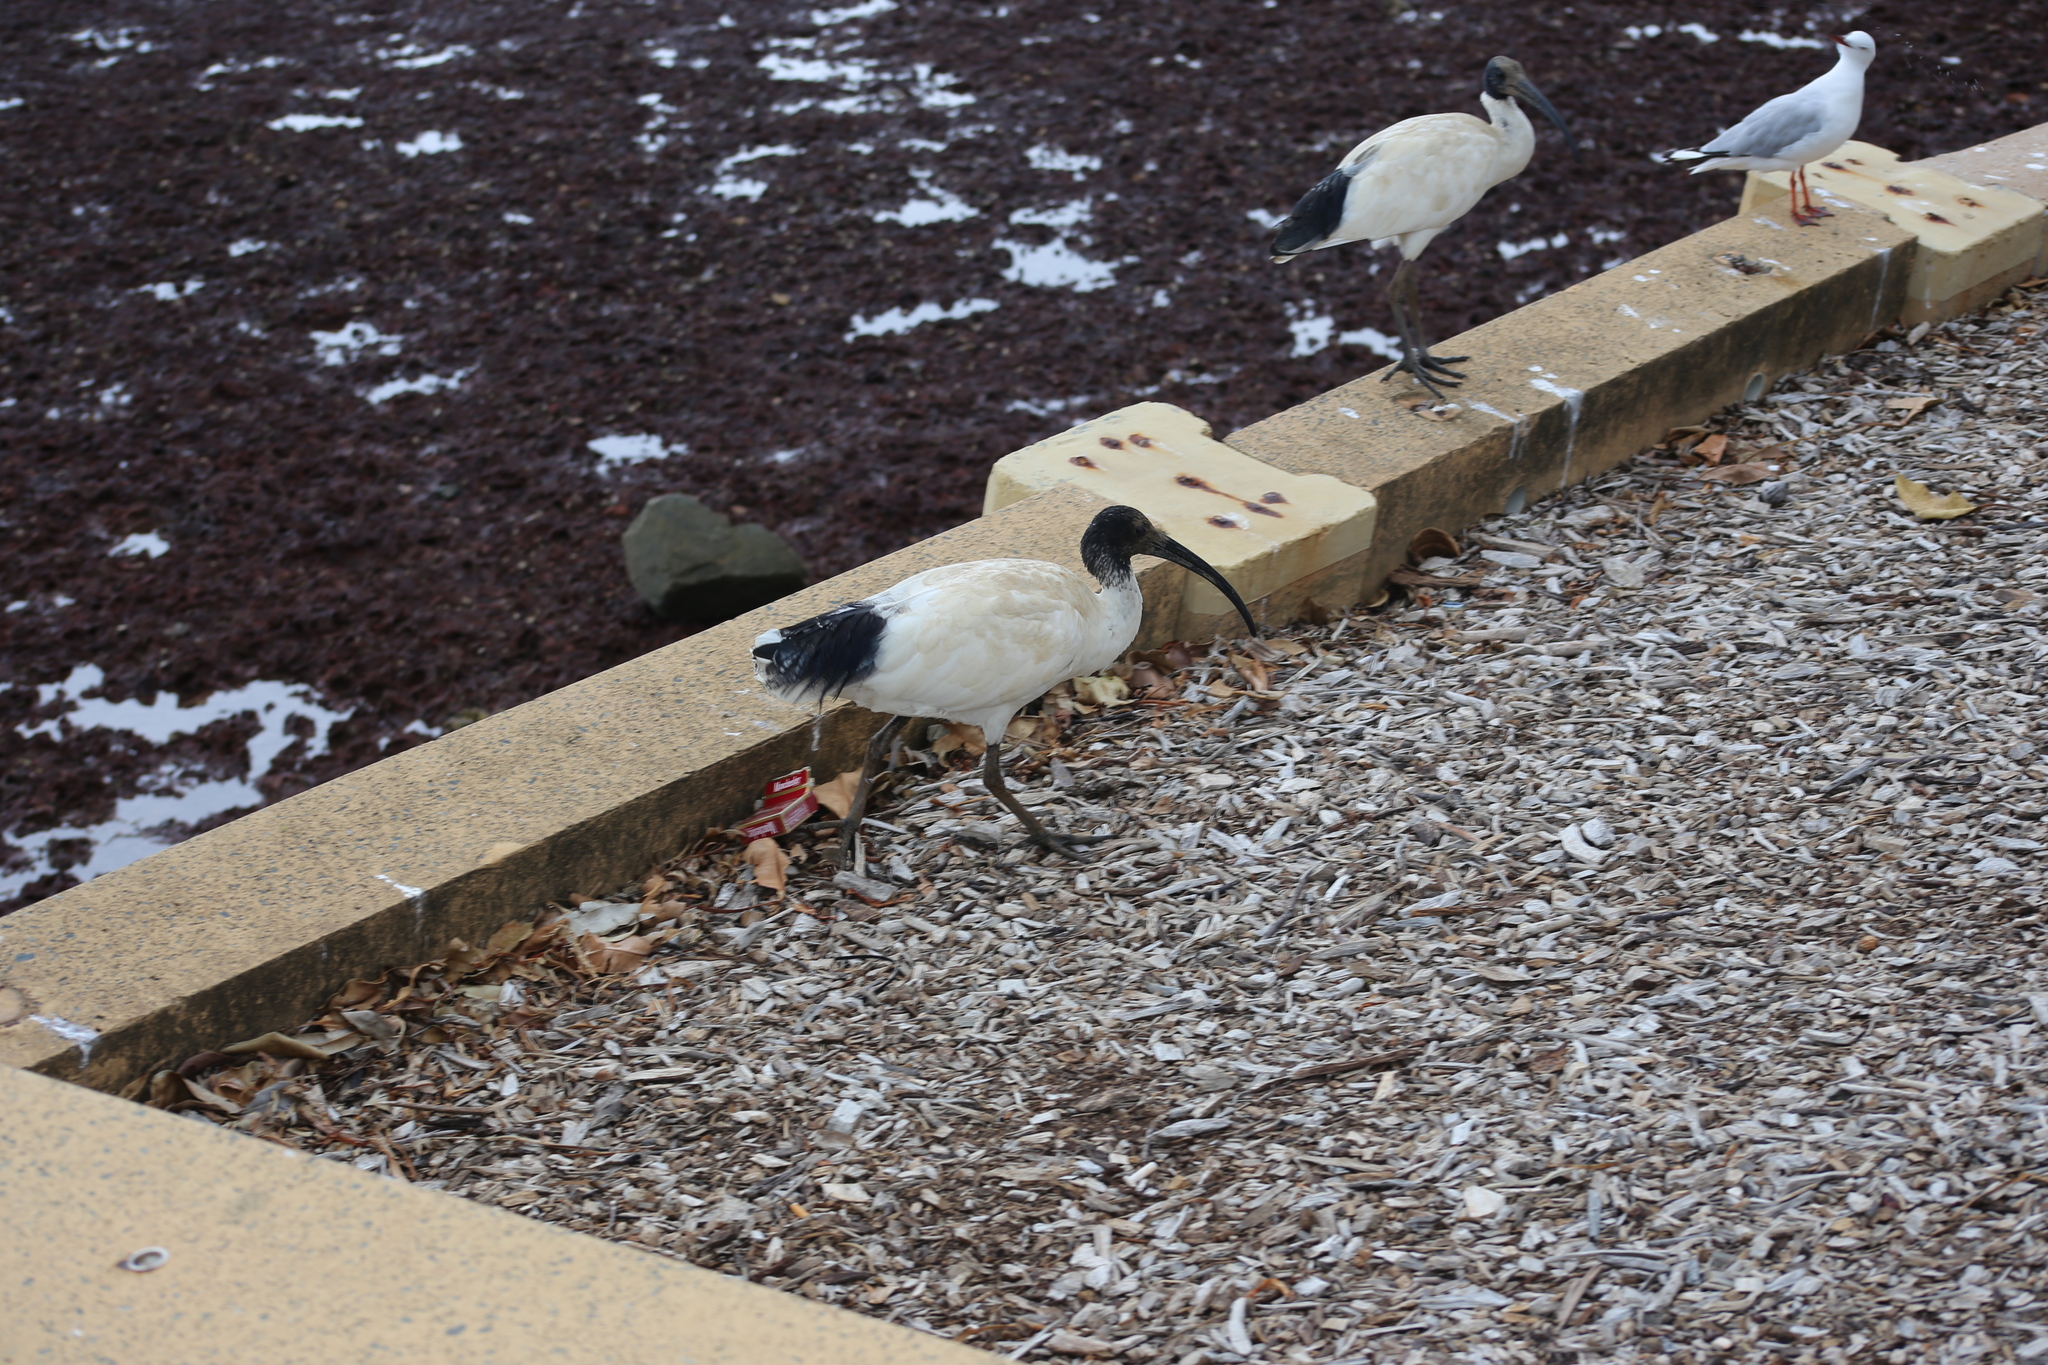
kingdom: Animalia
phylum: Chordata
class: Aves
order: Pelecaniformes
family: Threskiornithidae
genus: Threskiornis
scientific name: Threskiornis molucca
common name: Australian white ibis
